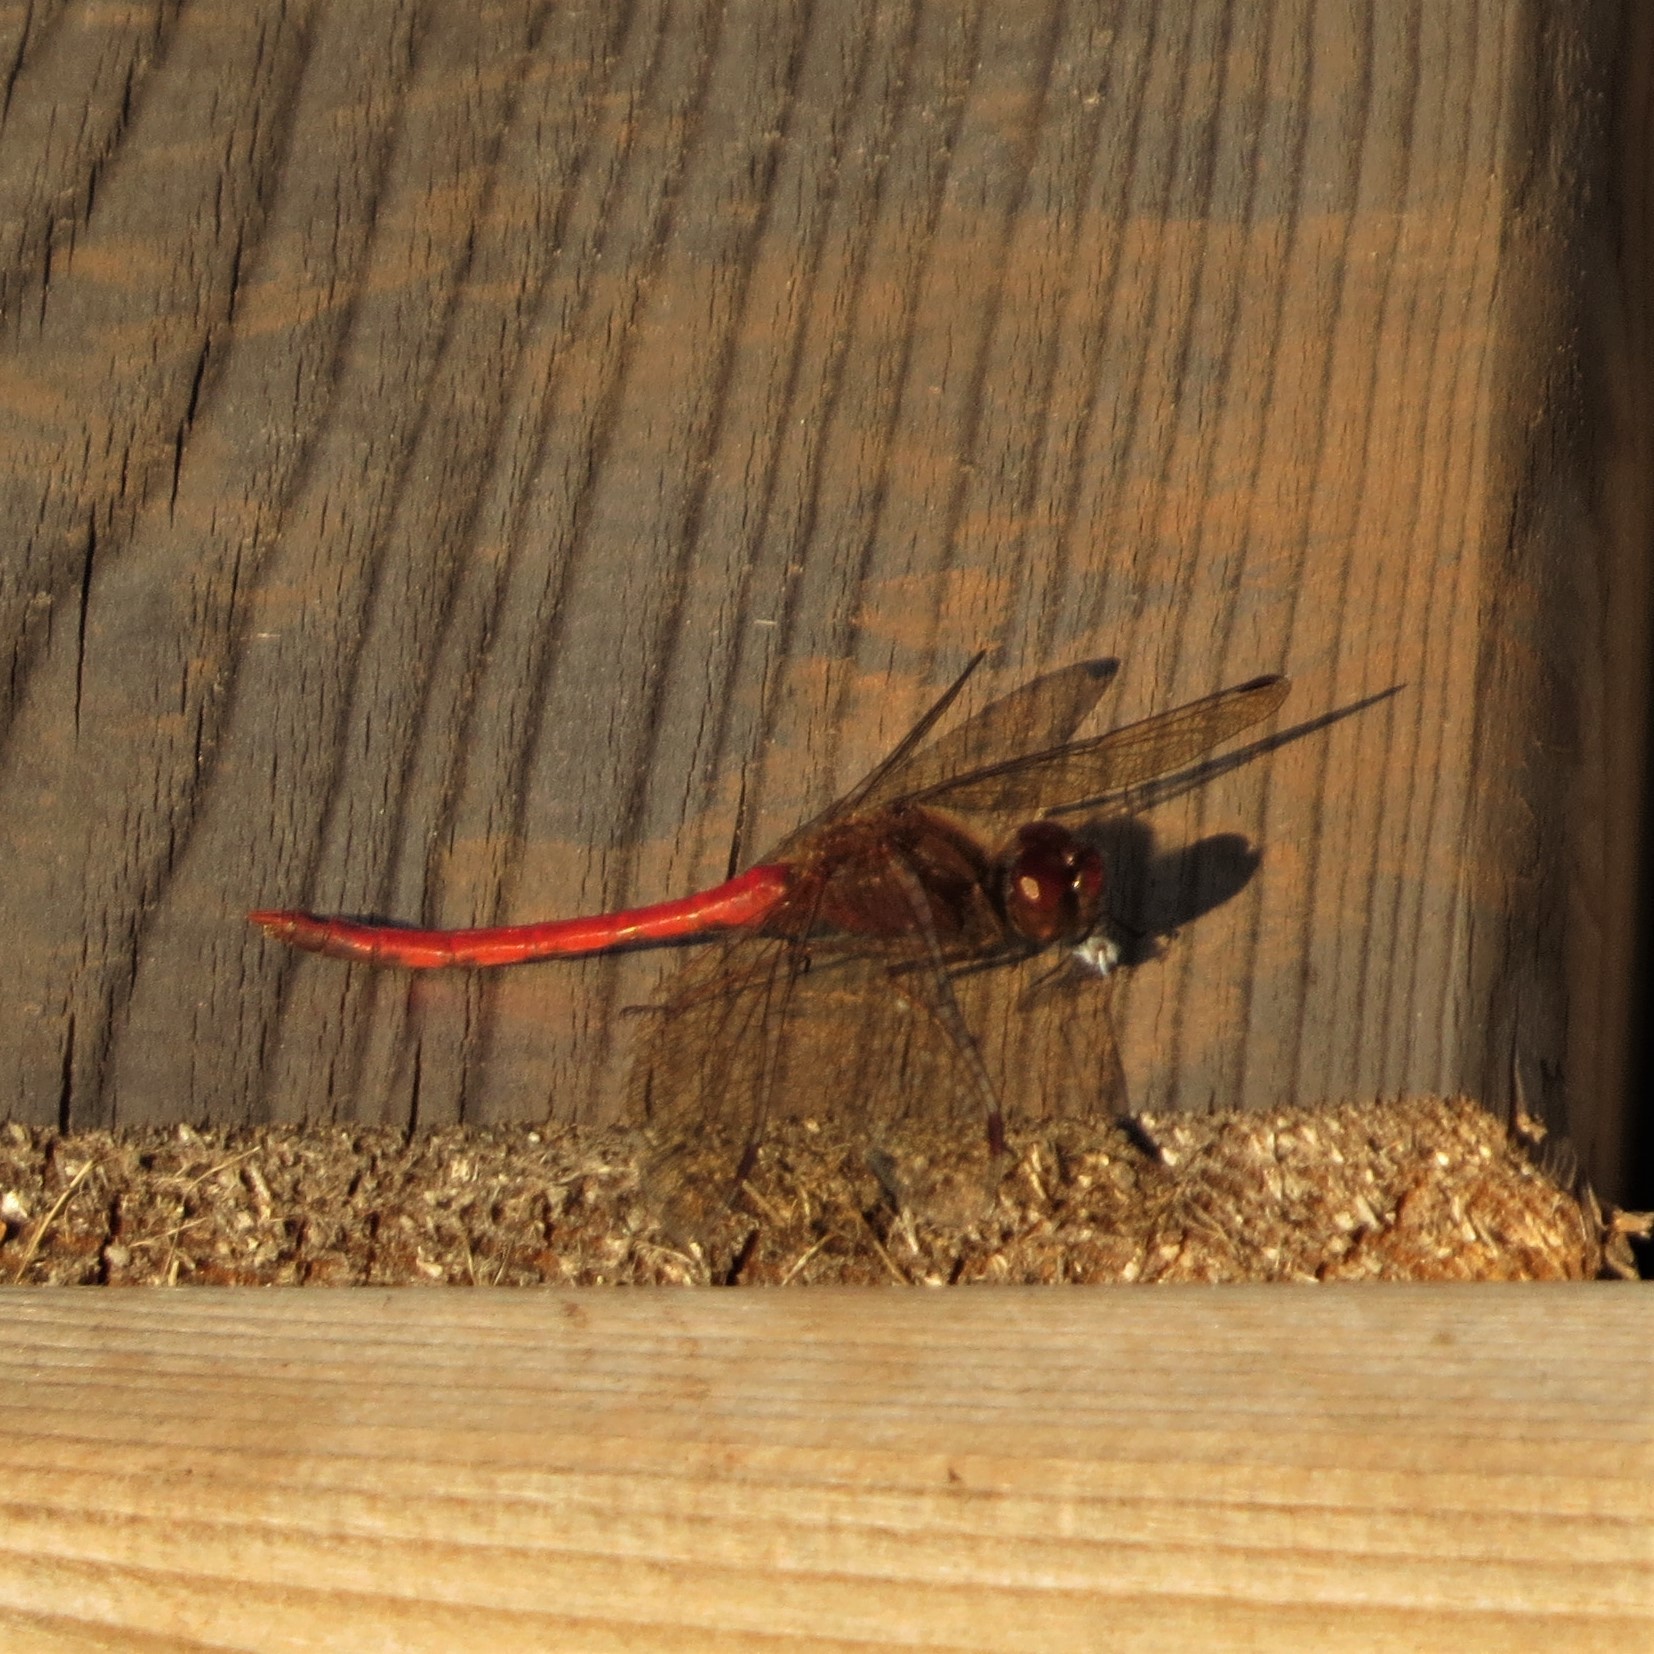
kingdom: Animalia
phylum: Arthropoda
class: Insecta
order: Odonata
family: Libellulidae
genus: Sympetrum
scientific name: Sympetrum vicinum
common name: Autumn meadowhawk
